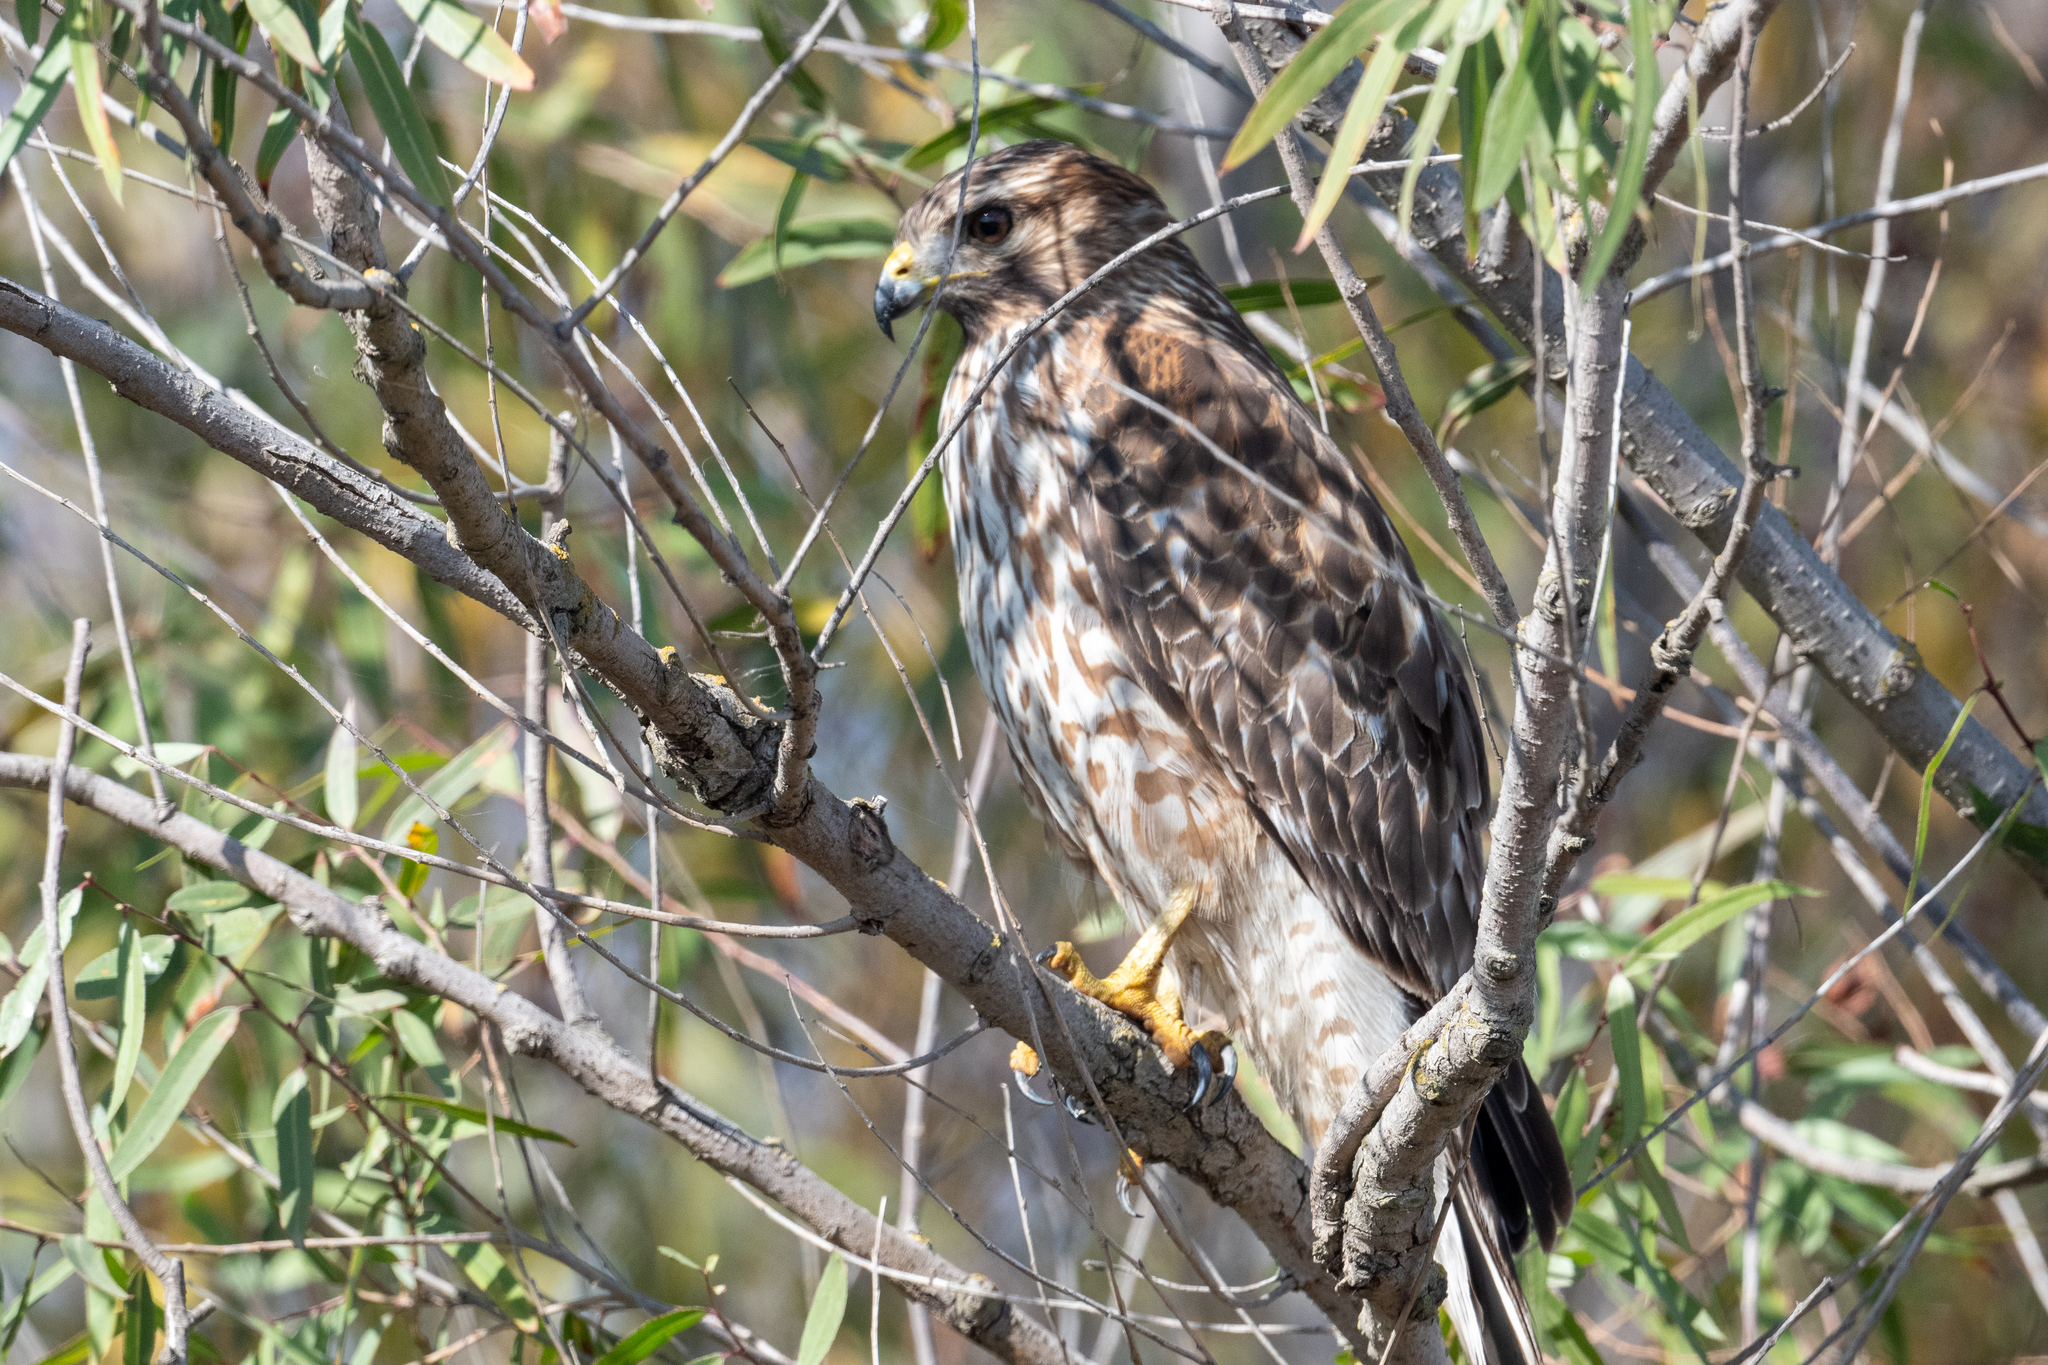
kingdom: Animalia
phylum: Chordata
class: Aves
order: Accipitriformes
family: Accipitridae
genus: Buteo
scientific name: Buteo lineatus
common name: Red-shouldered hawk
